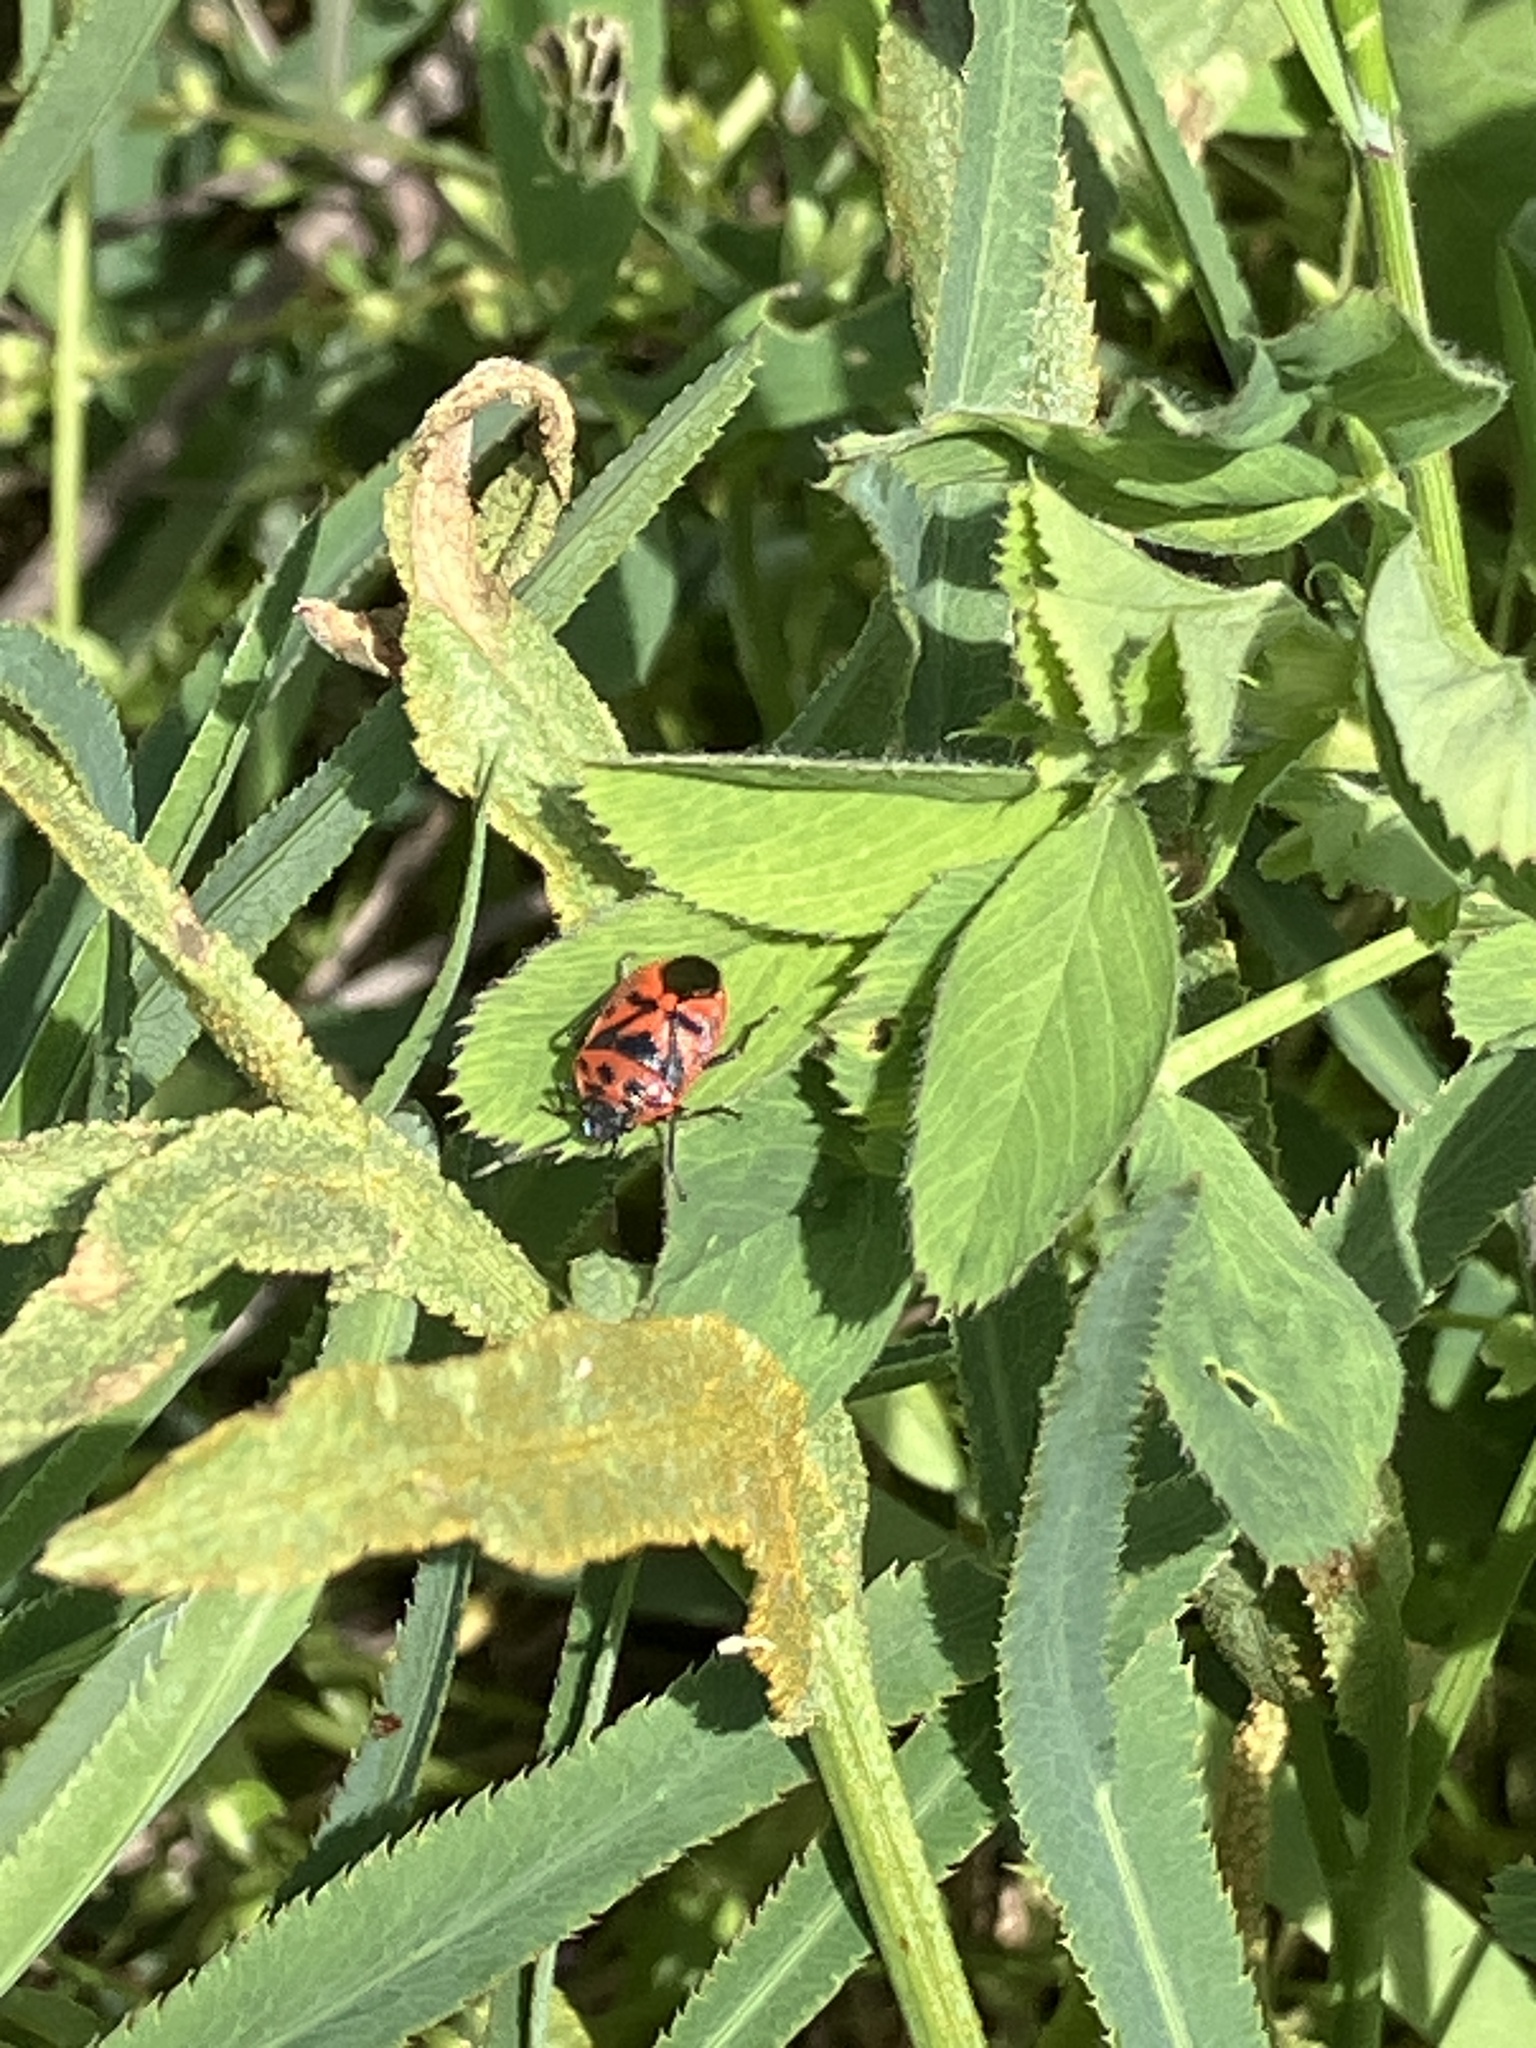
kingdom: Animalia
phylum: Arthropoda
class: Insecta
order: Hemiptera
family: Pentatomidae
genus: Eurydema
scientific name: Eurydema ornata
